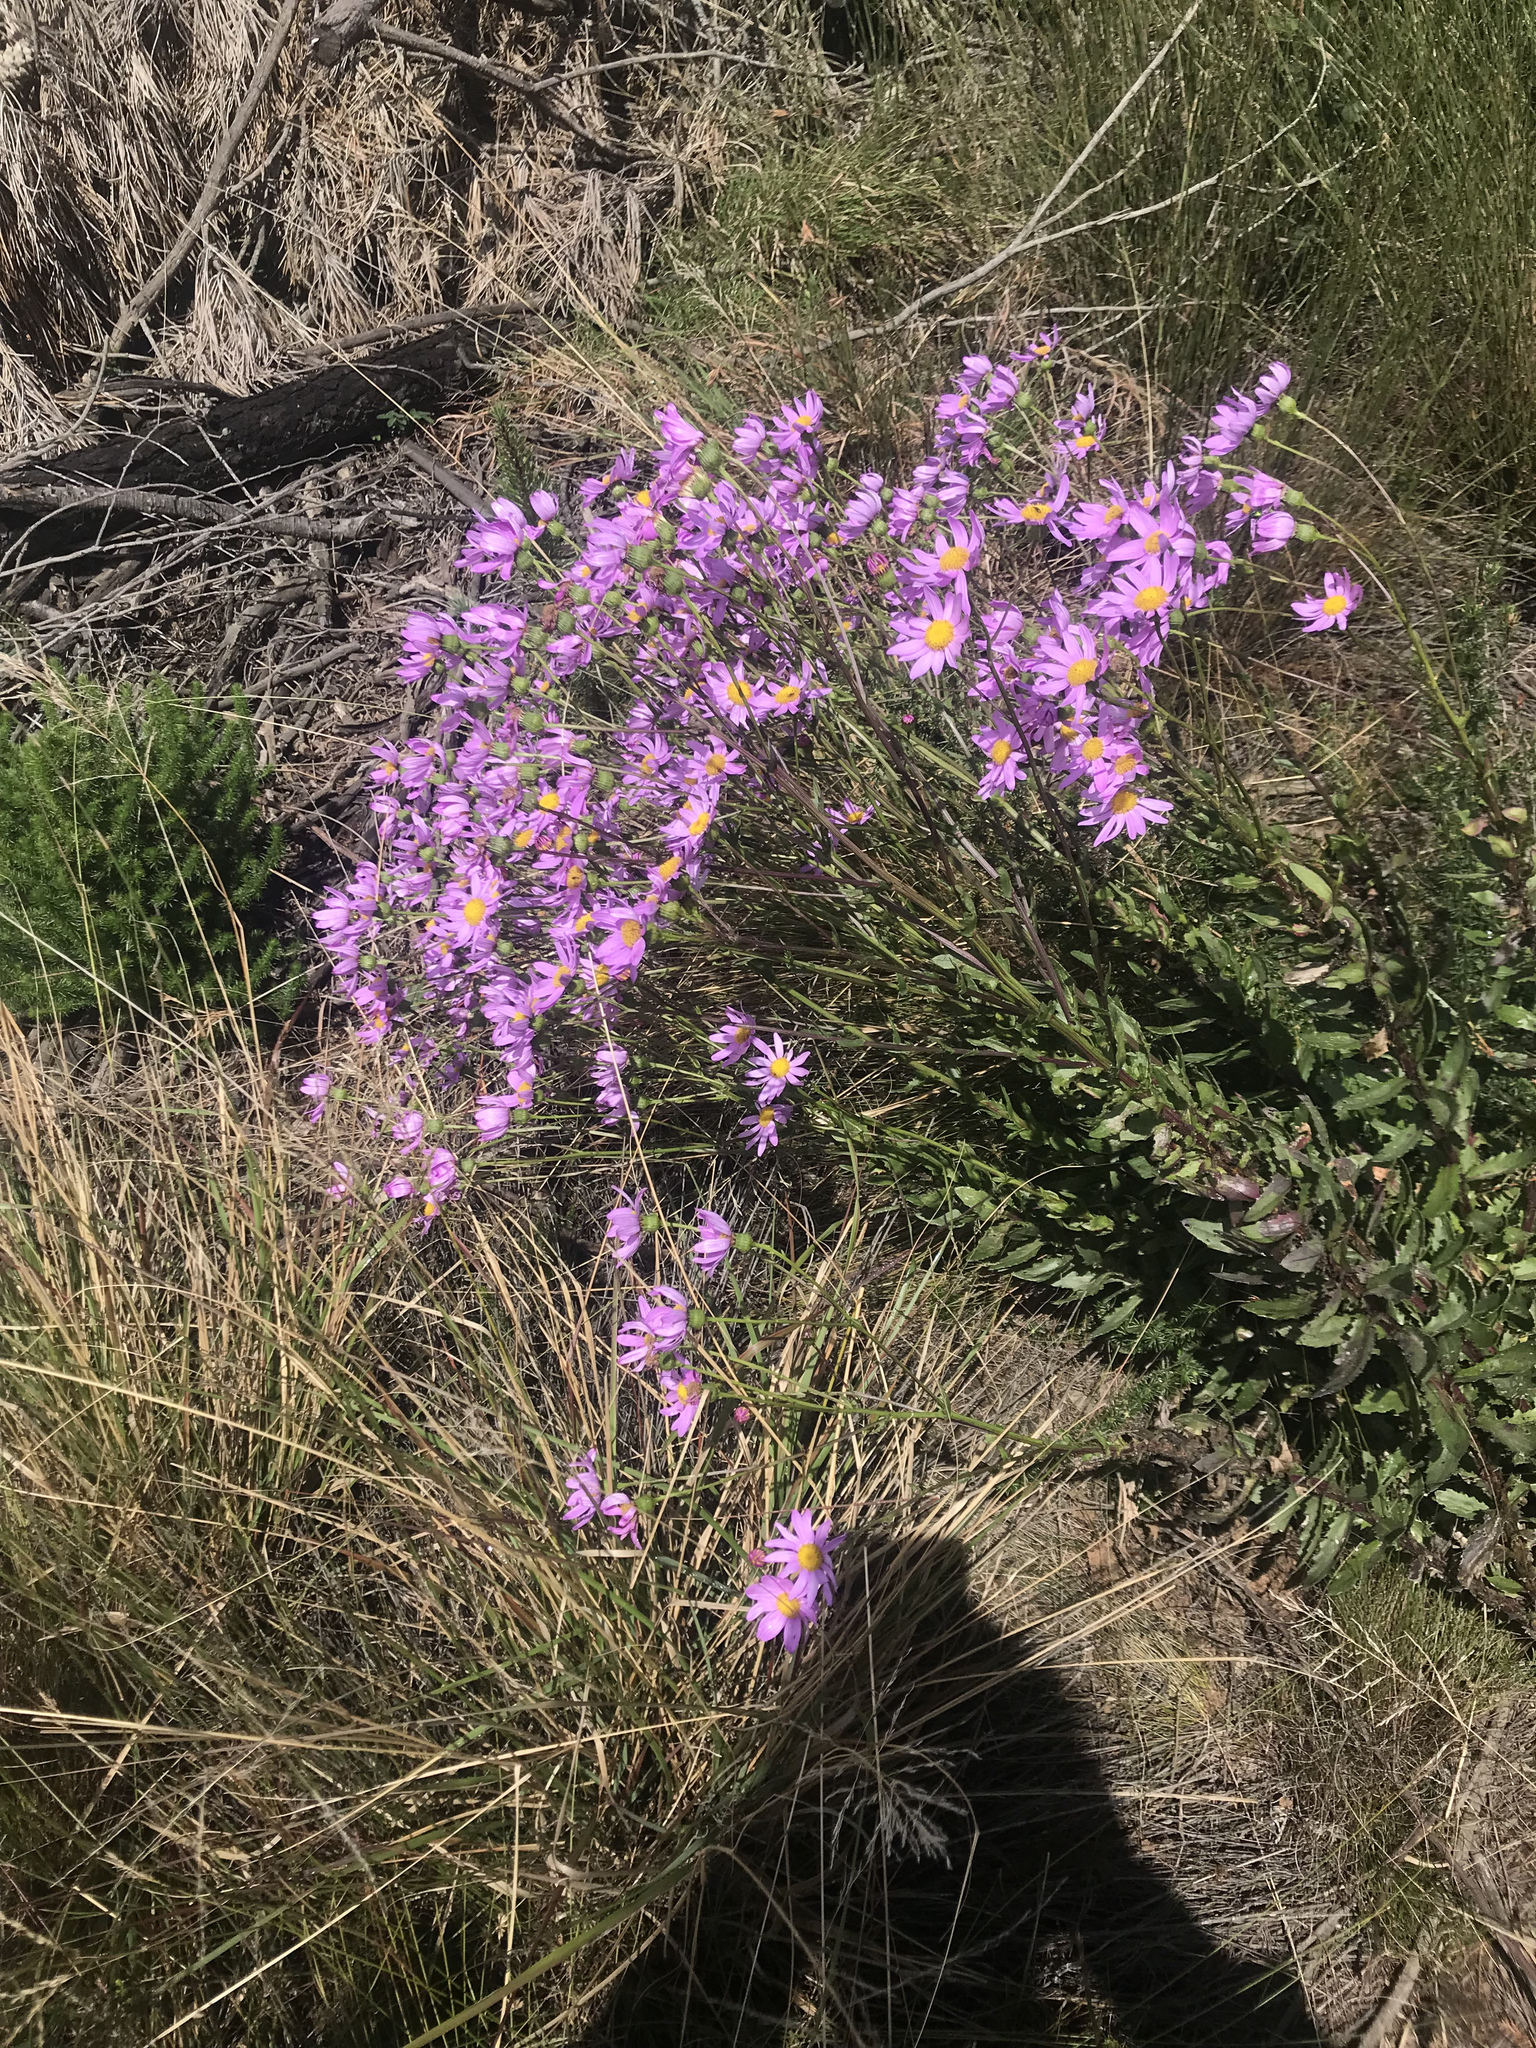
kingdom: Plantae
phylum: Tracheophyta
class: Magnoliopsida
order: Asterales
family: Asteraceae
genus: Senecio
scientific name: Senecio glastifolius
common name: Woad-leaved ragwort
